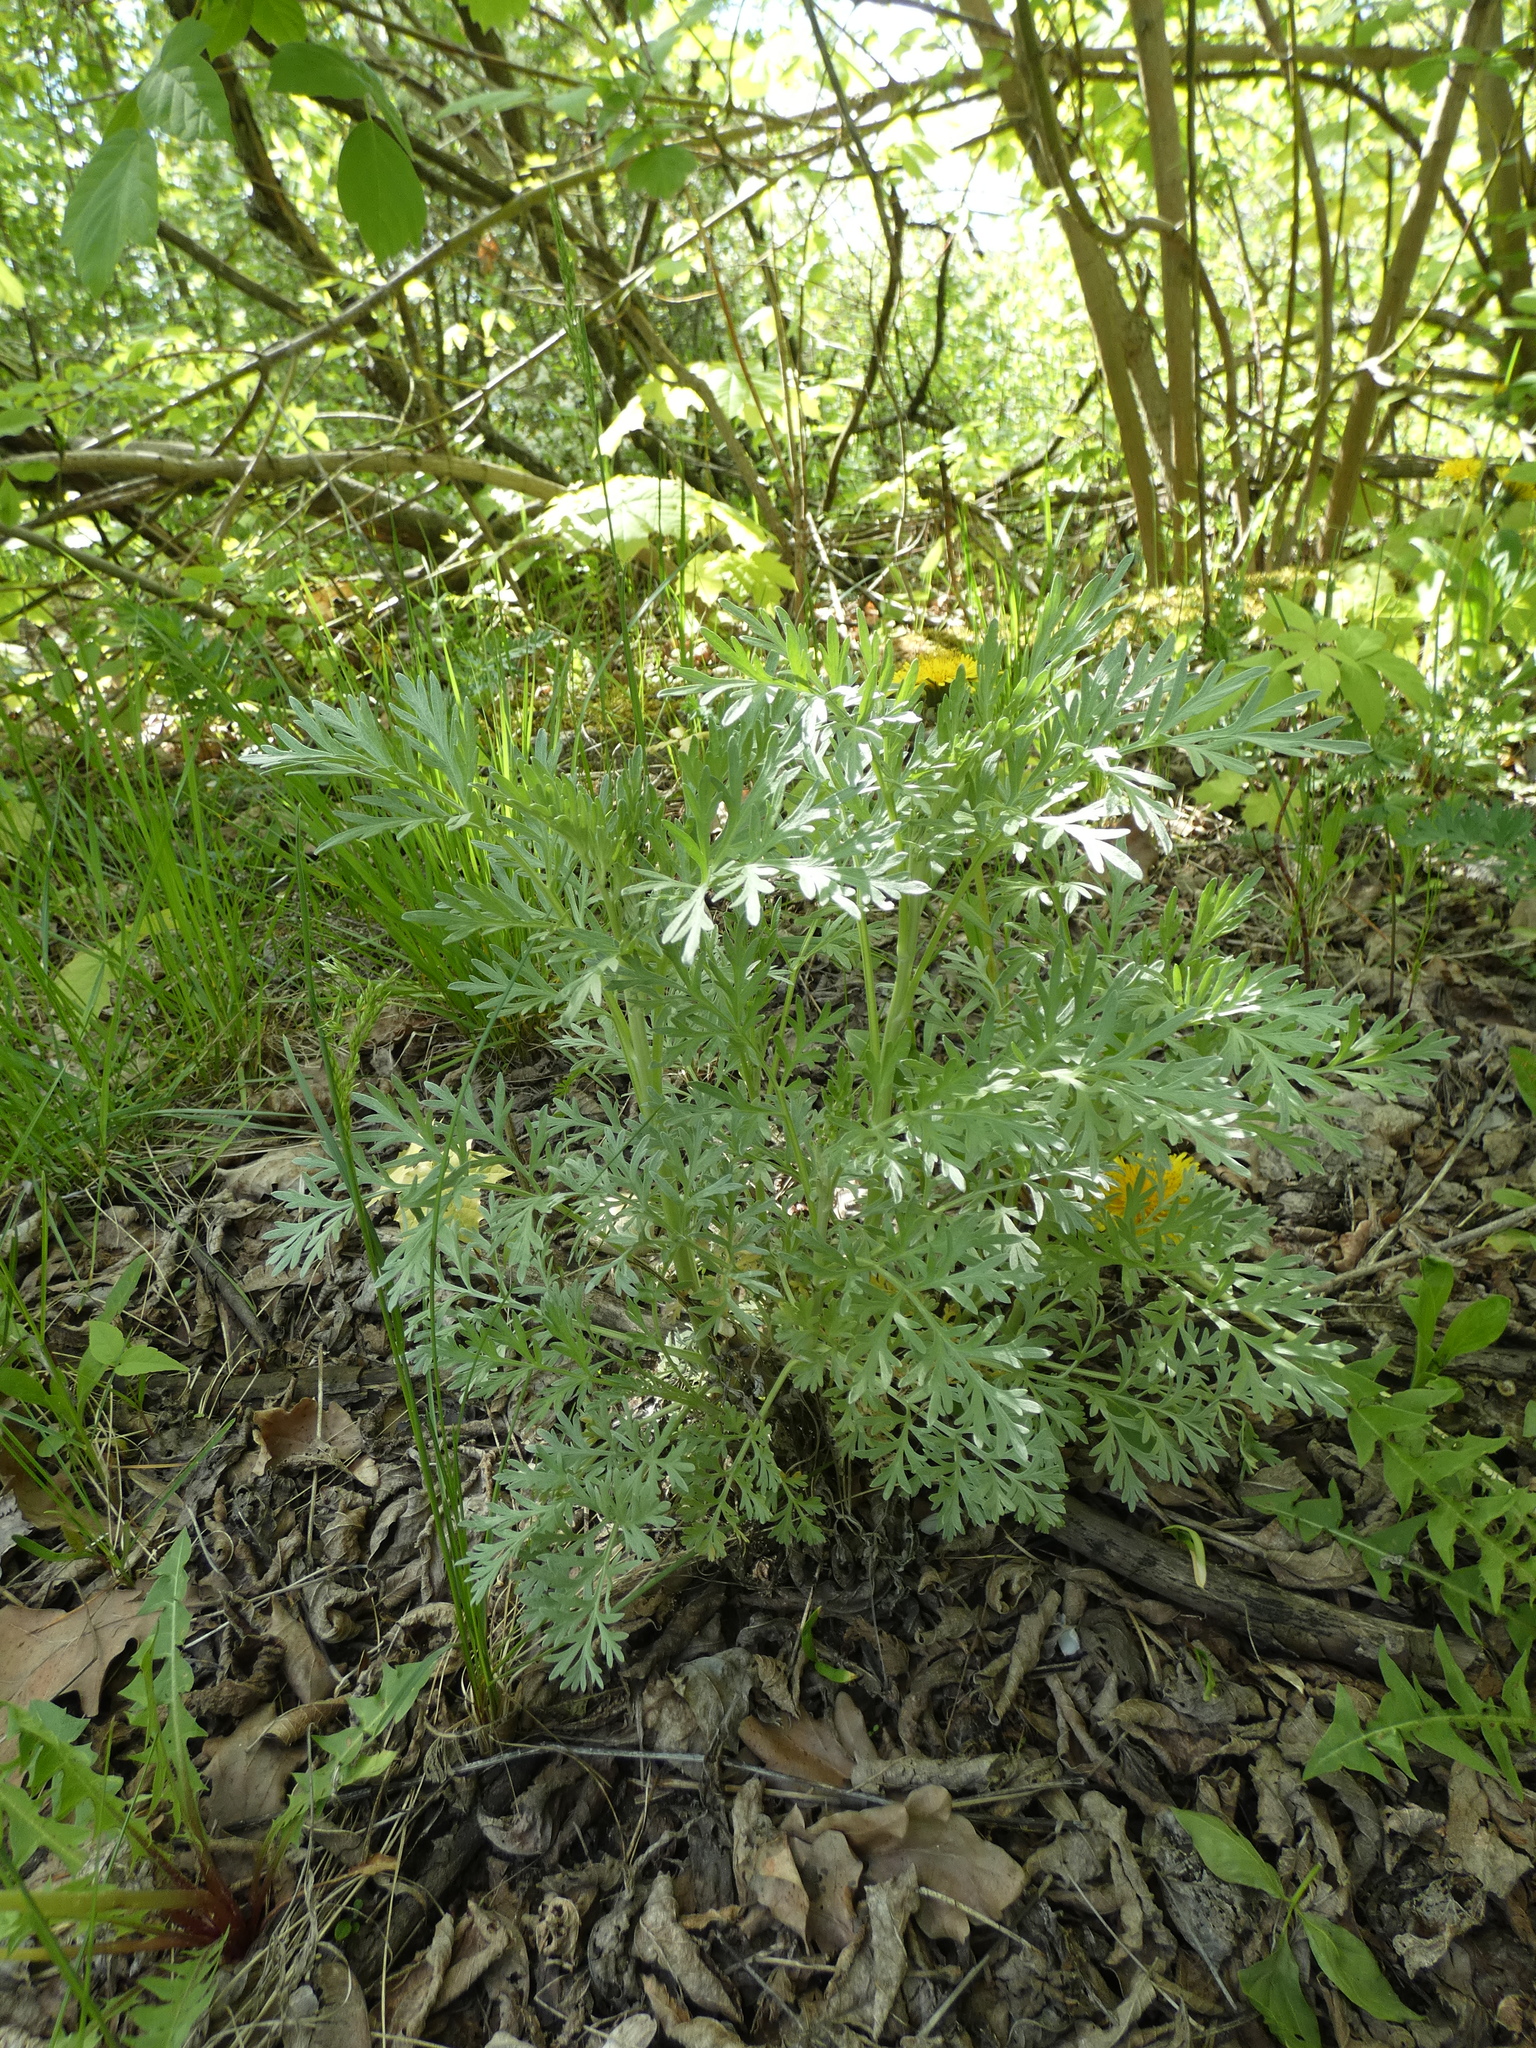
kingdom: Plantae
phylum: Tracheophyta
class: Magnoliopsida
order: Asterales
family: Asteraceae
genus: Artemisia
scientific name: Artemisia absinthium
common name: Wormwood
